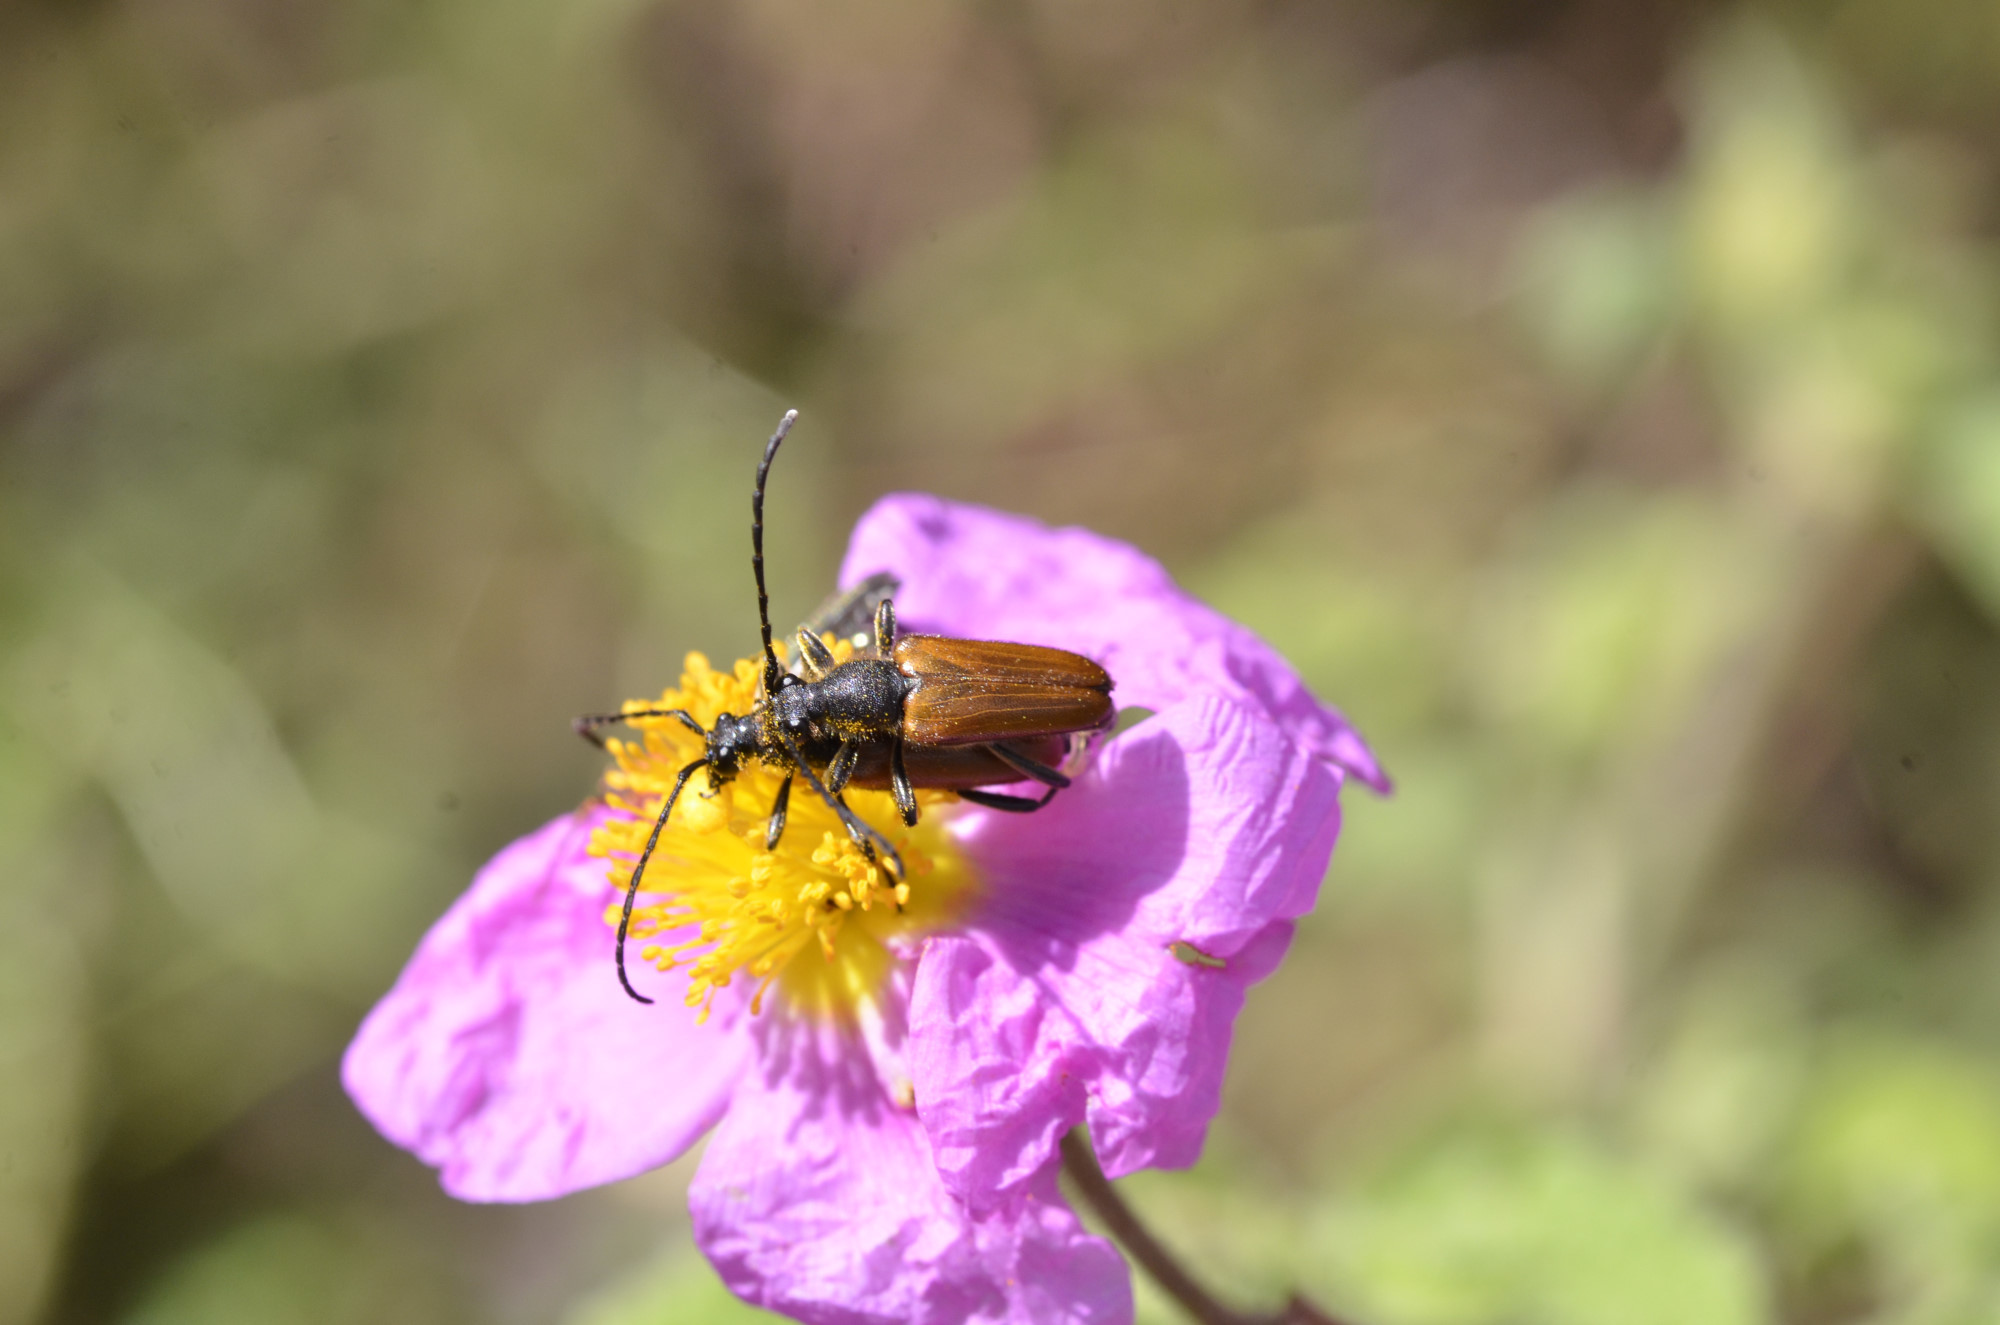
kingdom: Animalia
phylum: Arthropoda
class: Insecta
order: Coleoptera
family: Cerambycidae
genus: Stictoleptura
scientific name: Stictoleptura picticornis
